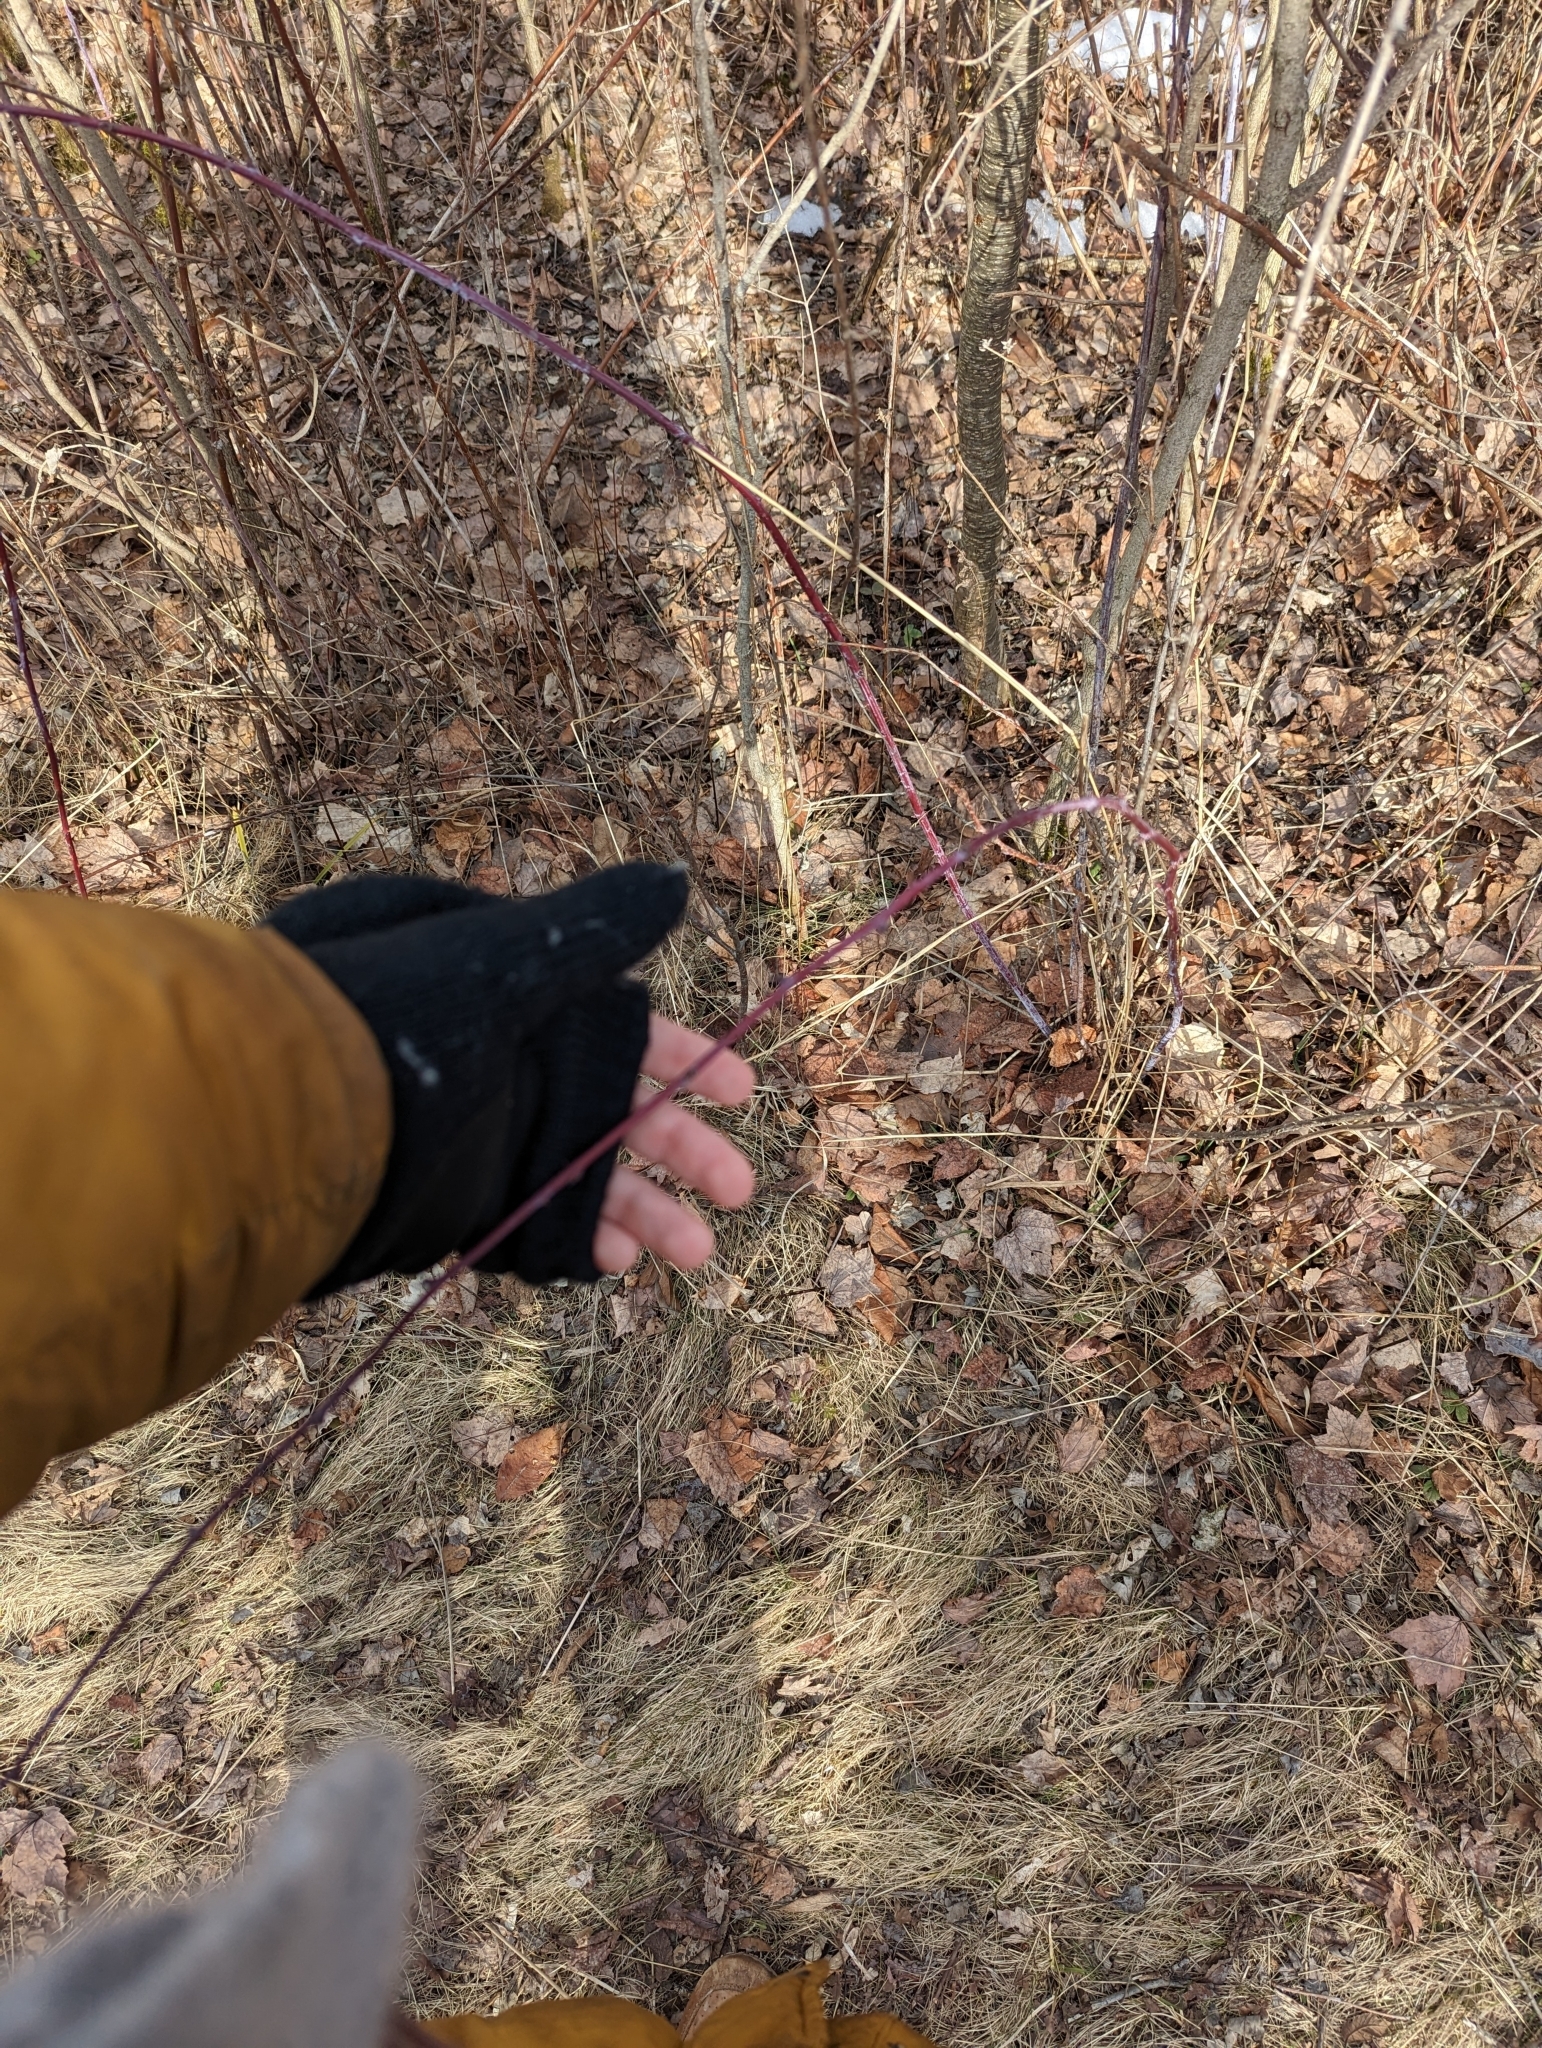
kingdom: Plantae
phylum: Tracheophyta
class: Magnoliopsida
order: Rosales
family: Rosaceae
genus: Rubus
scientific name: Rubus occidentalis
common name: Black raspberry
